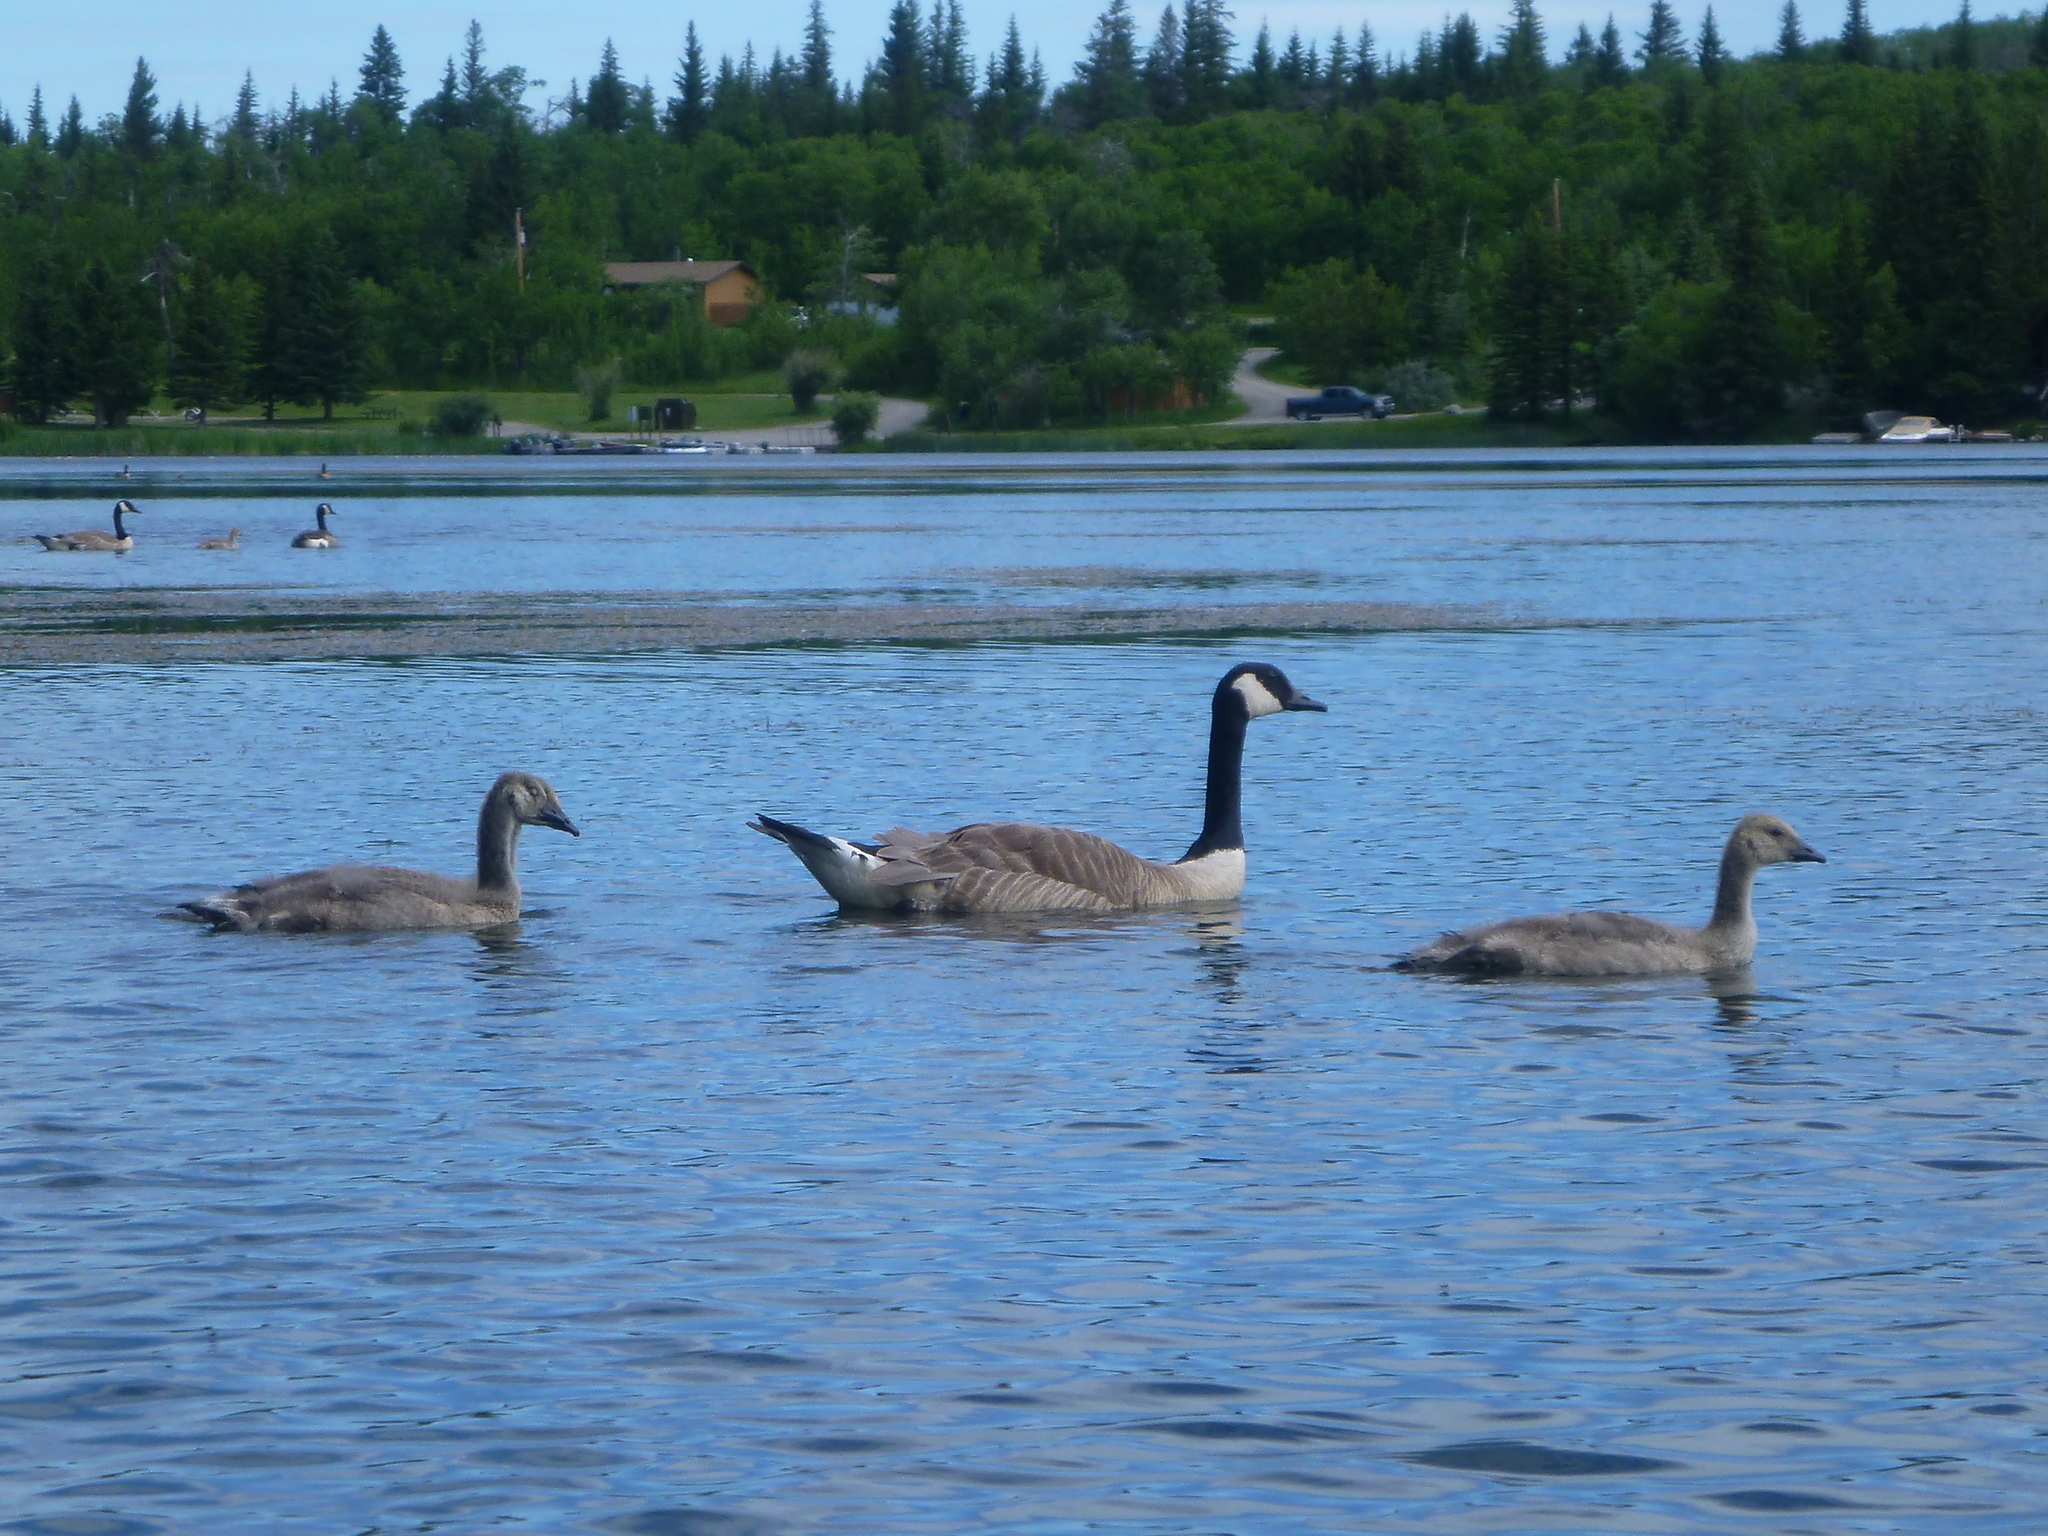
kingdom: Animalia
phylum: Chordata
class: Aves
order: Anseriformes
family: Anatidae
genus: Branta
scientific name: Branta canadensis
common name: Canada goose
